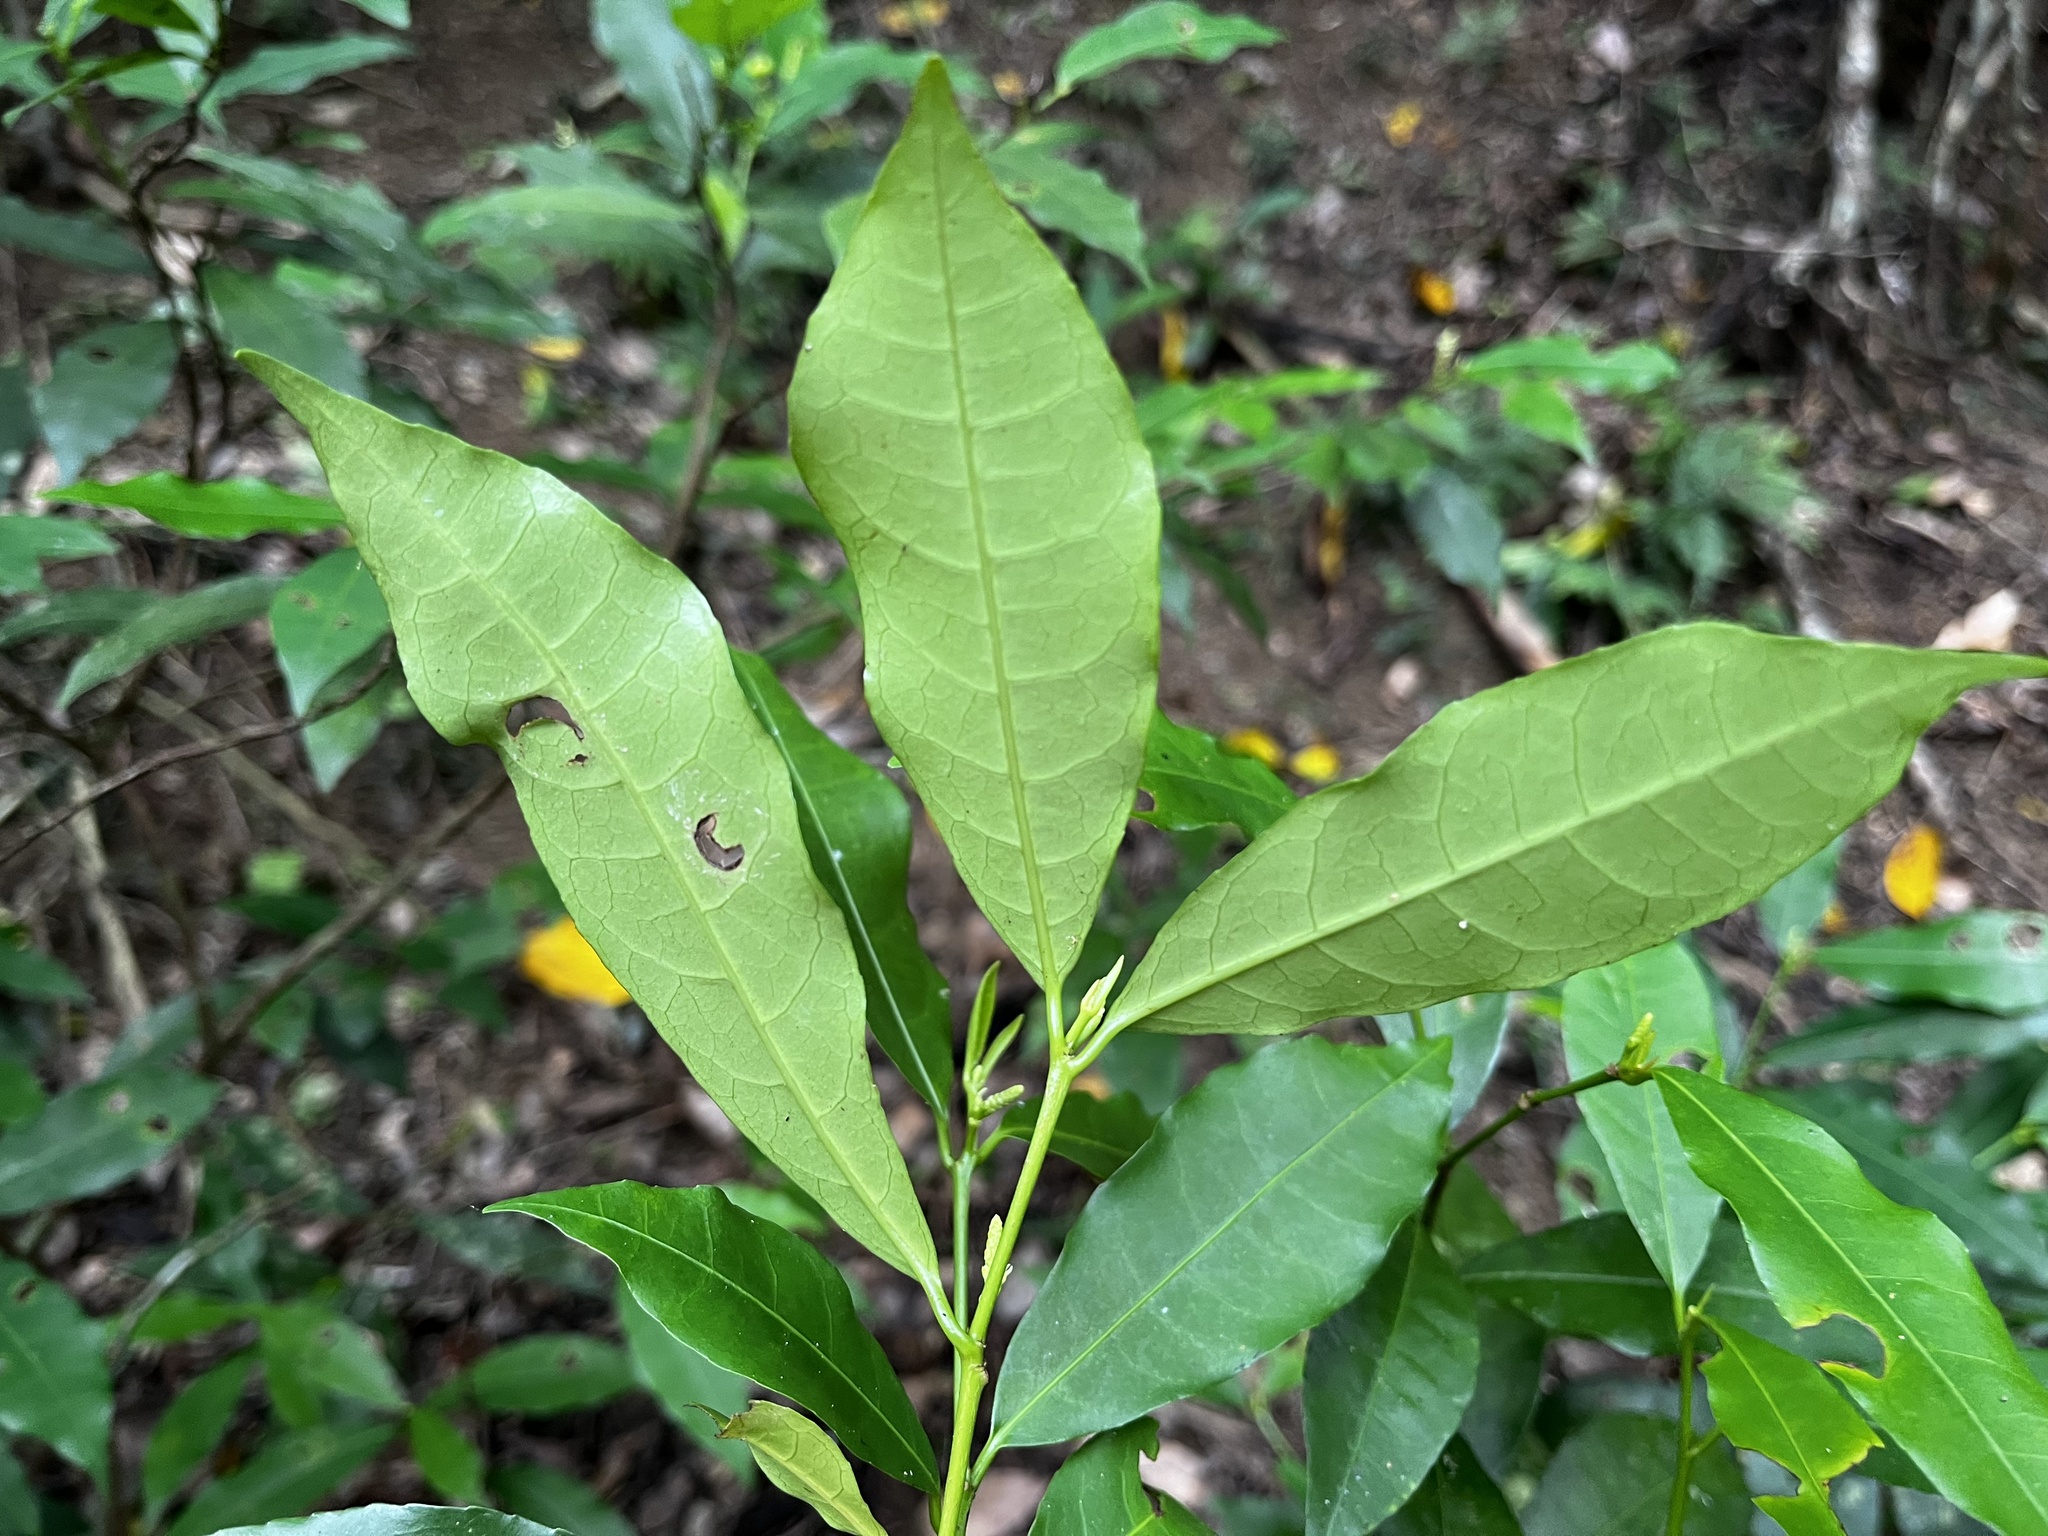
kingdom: Plantae
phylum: Tracheophyta
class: Magnoliopsida
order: Malpighiales
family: Euphorbiaceae
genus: Excoecaria
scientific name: Excoecaria formosana
